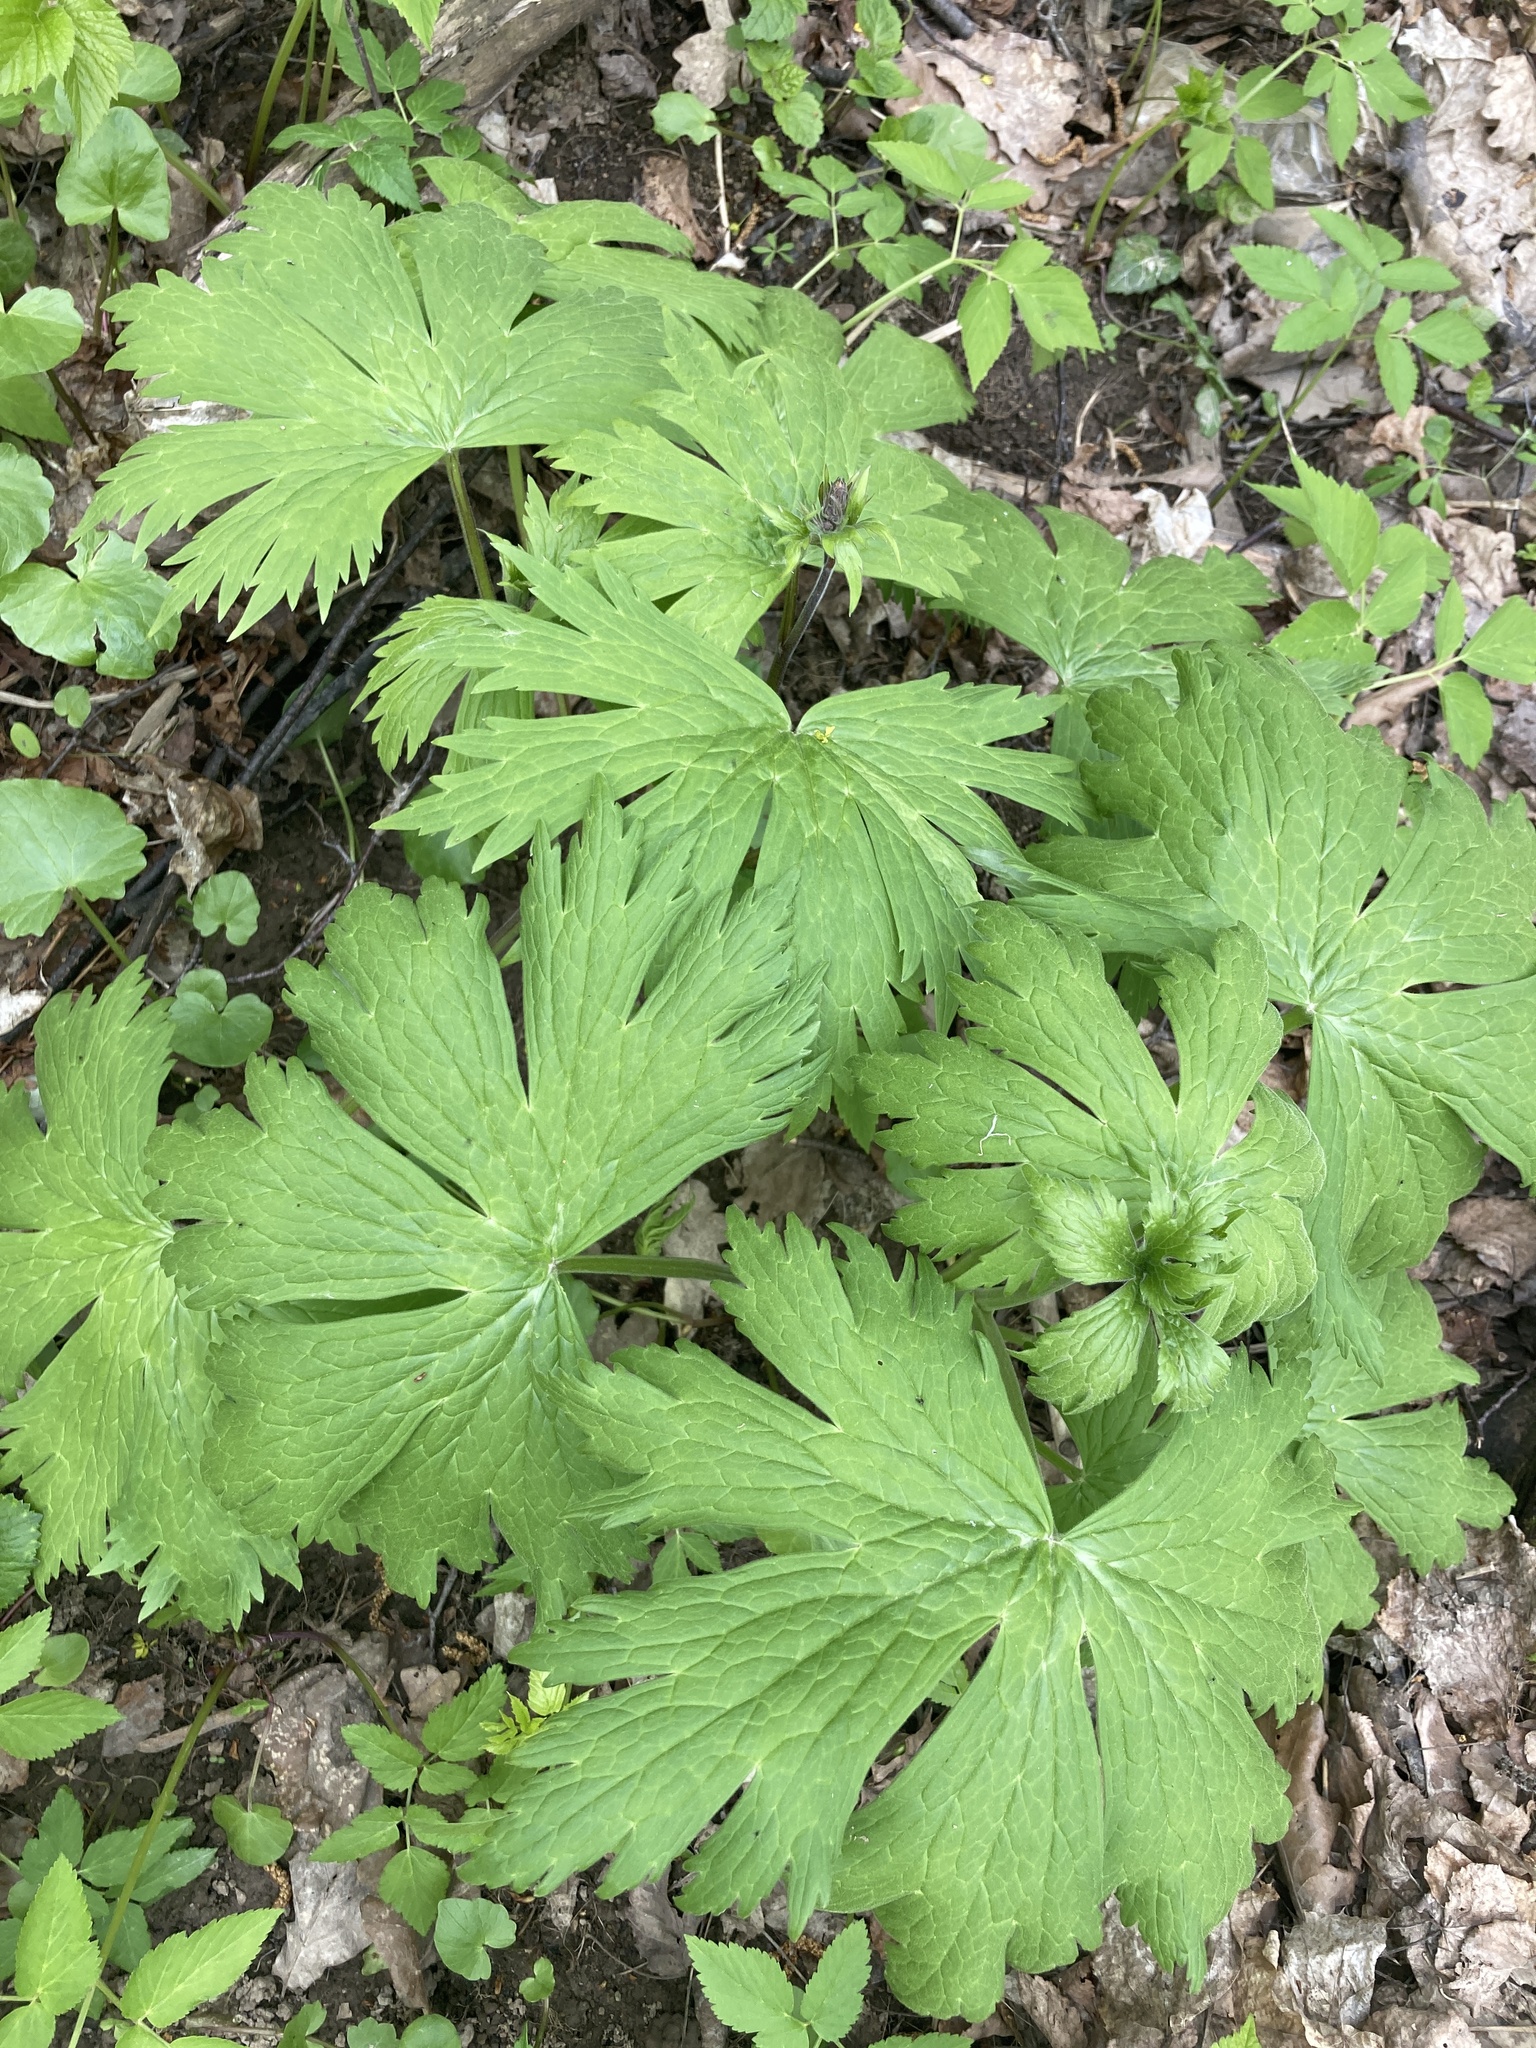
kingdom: Plantae
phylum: Tracheophyta
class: Magnoliopsida
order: Ranunculales
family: Ranunculaceae
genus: Aconitum
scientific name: Aconitum septentrionale
